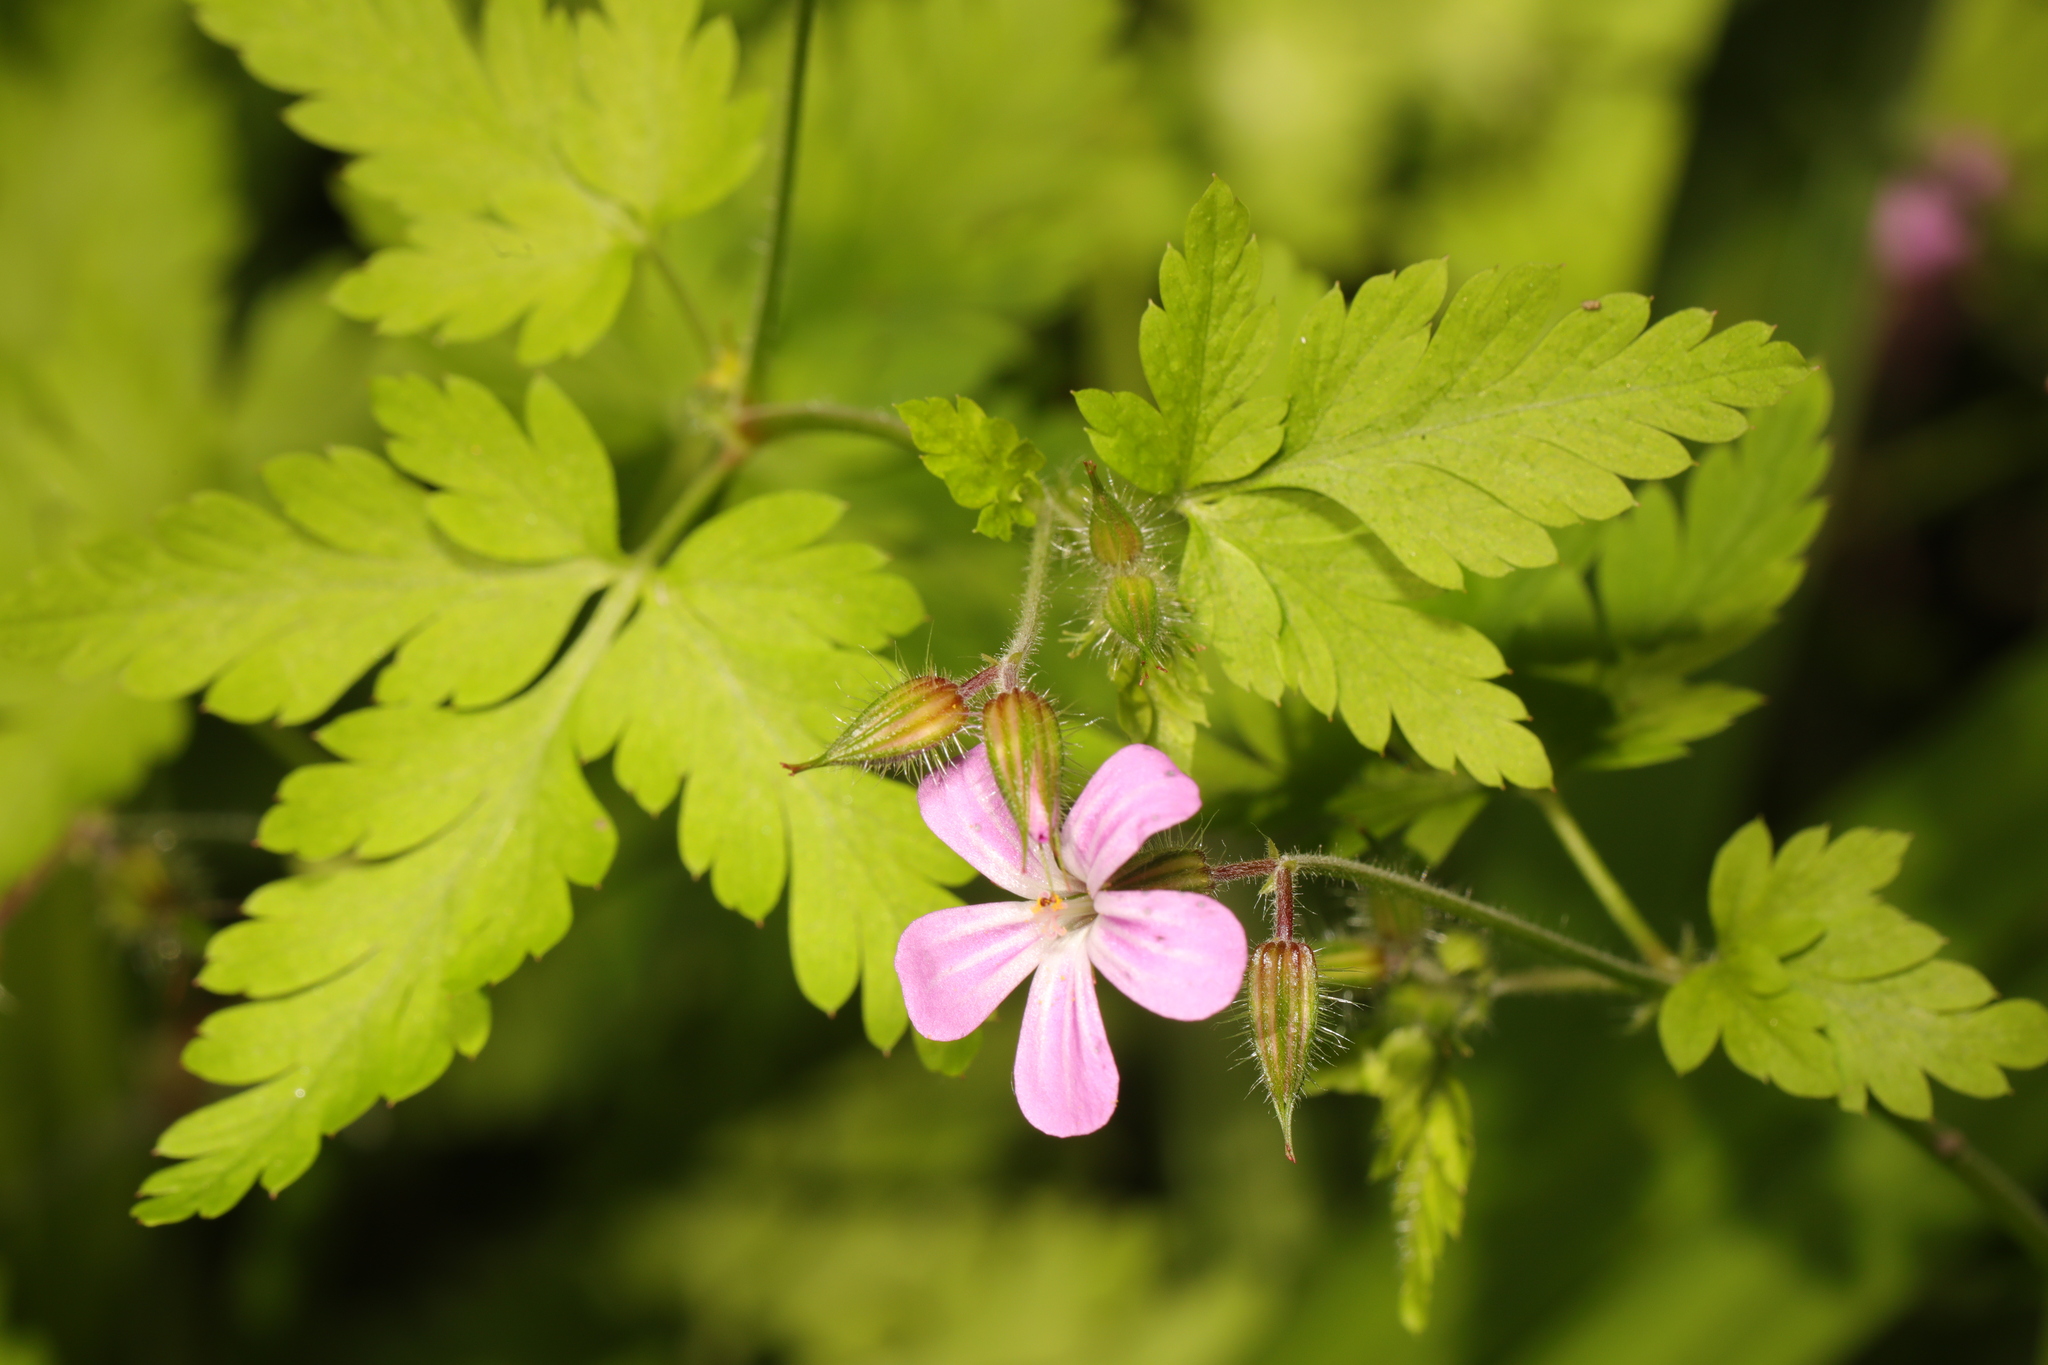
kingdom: Plantae
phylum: Tracheophyta
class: Magnoliopsida
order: Geraniales
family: Geraniaceae
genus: Geranium
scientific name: Geranium robertianum
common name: Herb-robert
